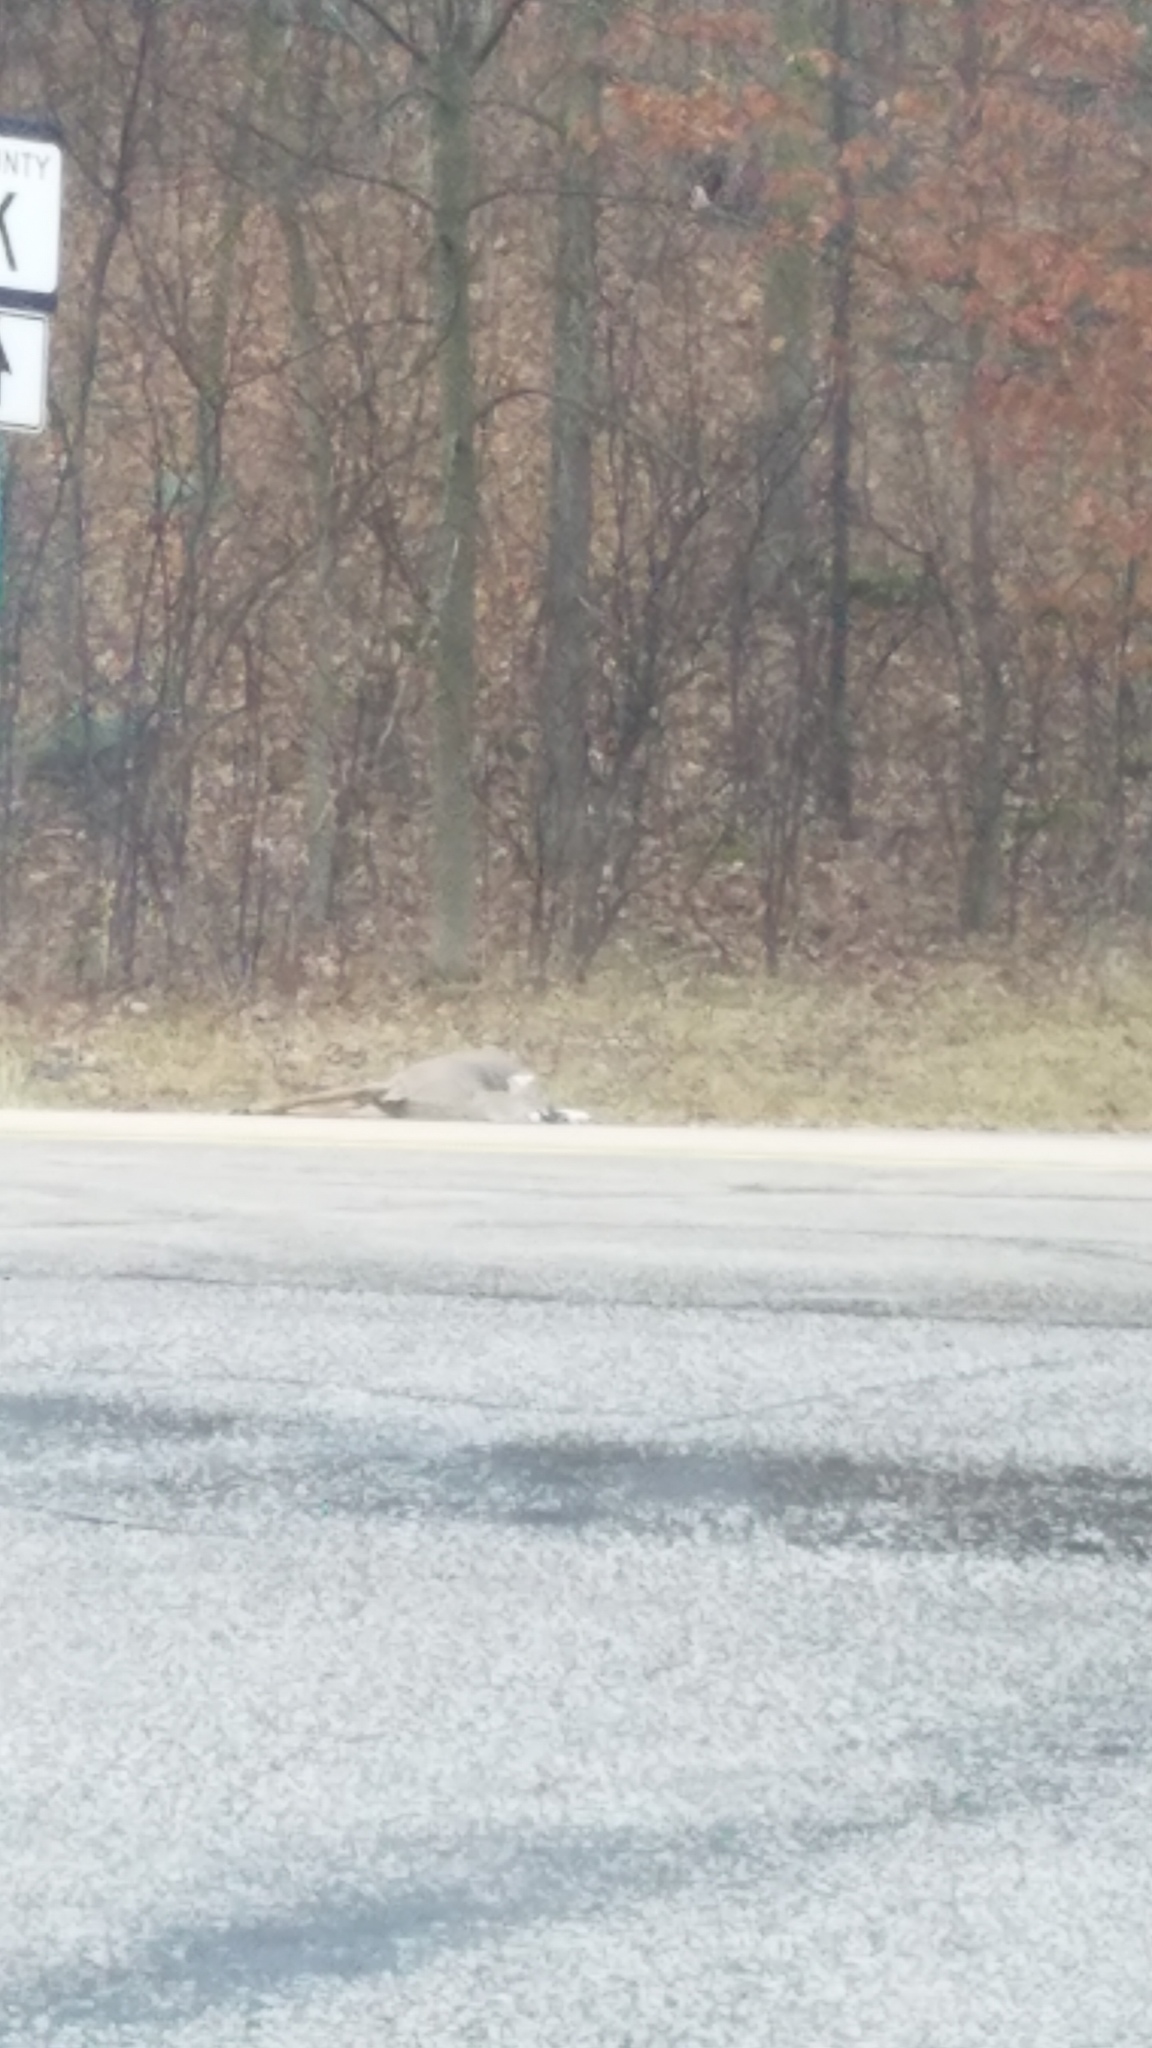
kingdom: Animalia
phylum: Chordata
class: Mammalia
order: Artiodactyla
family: Cervidae
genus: Odocoileus
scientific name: Odocoileus virginianus
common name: White-tailed deer
